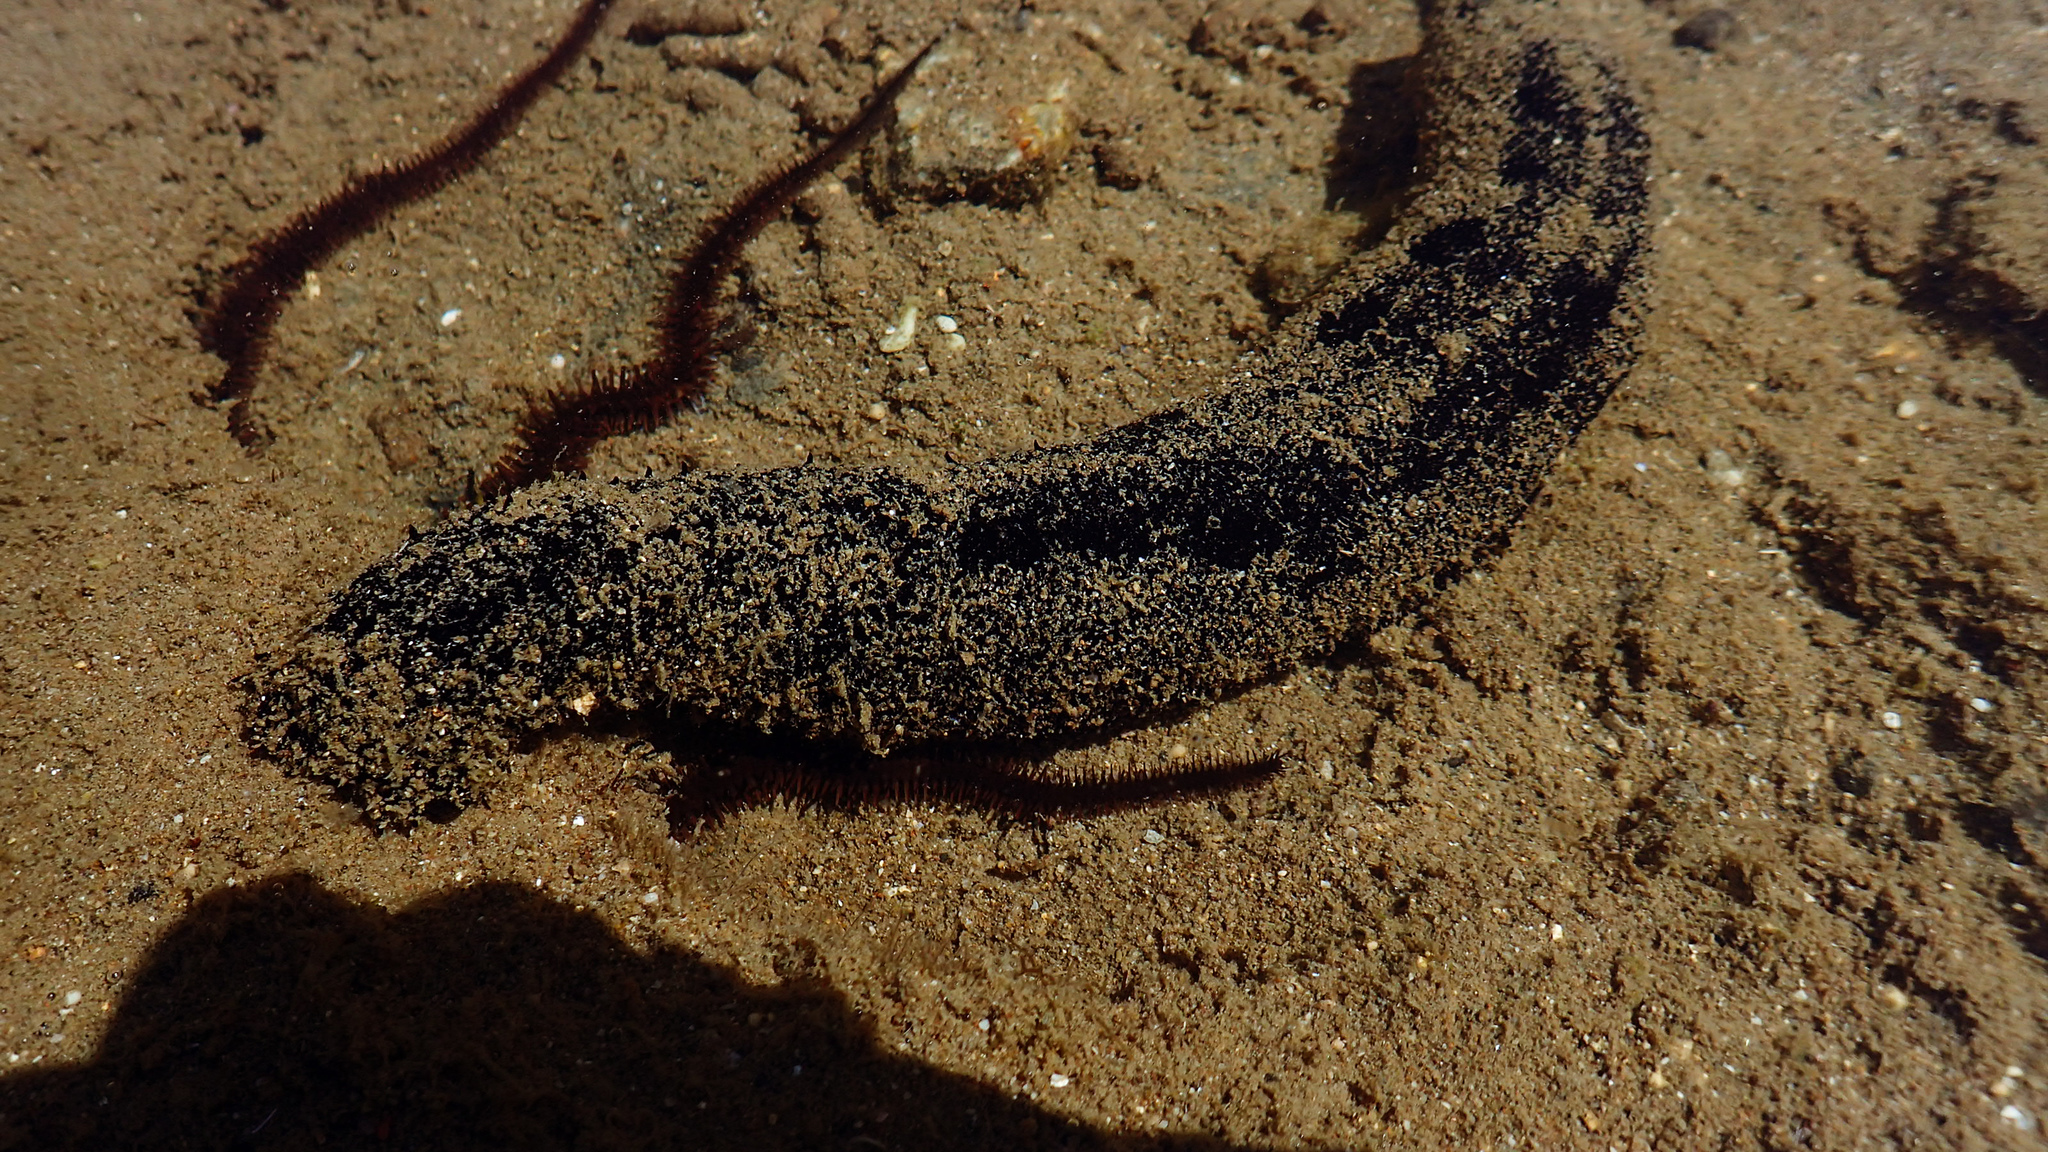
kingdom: Animalia
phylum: Echinodermata
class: Holothuroidea
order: Holothuriida
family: Holothuriidae
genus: Holothuria
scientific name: Holothuria atra
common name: Lollyfish
